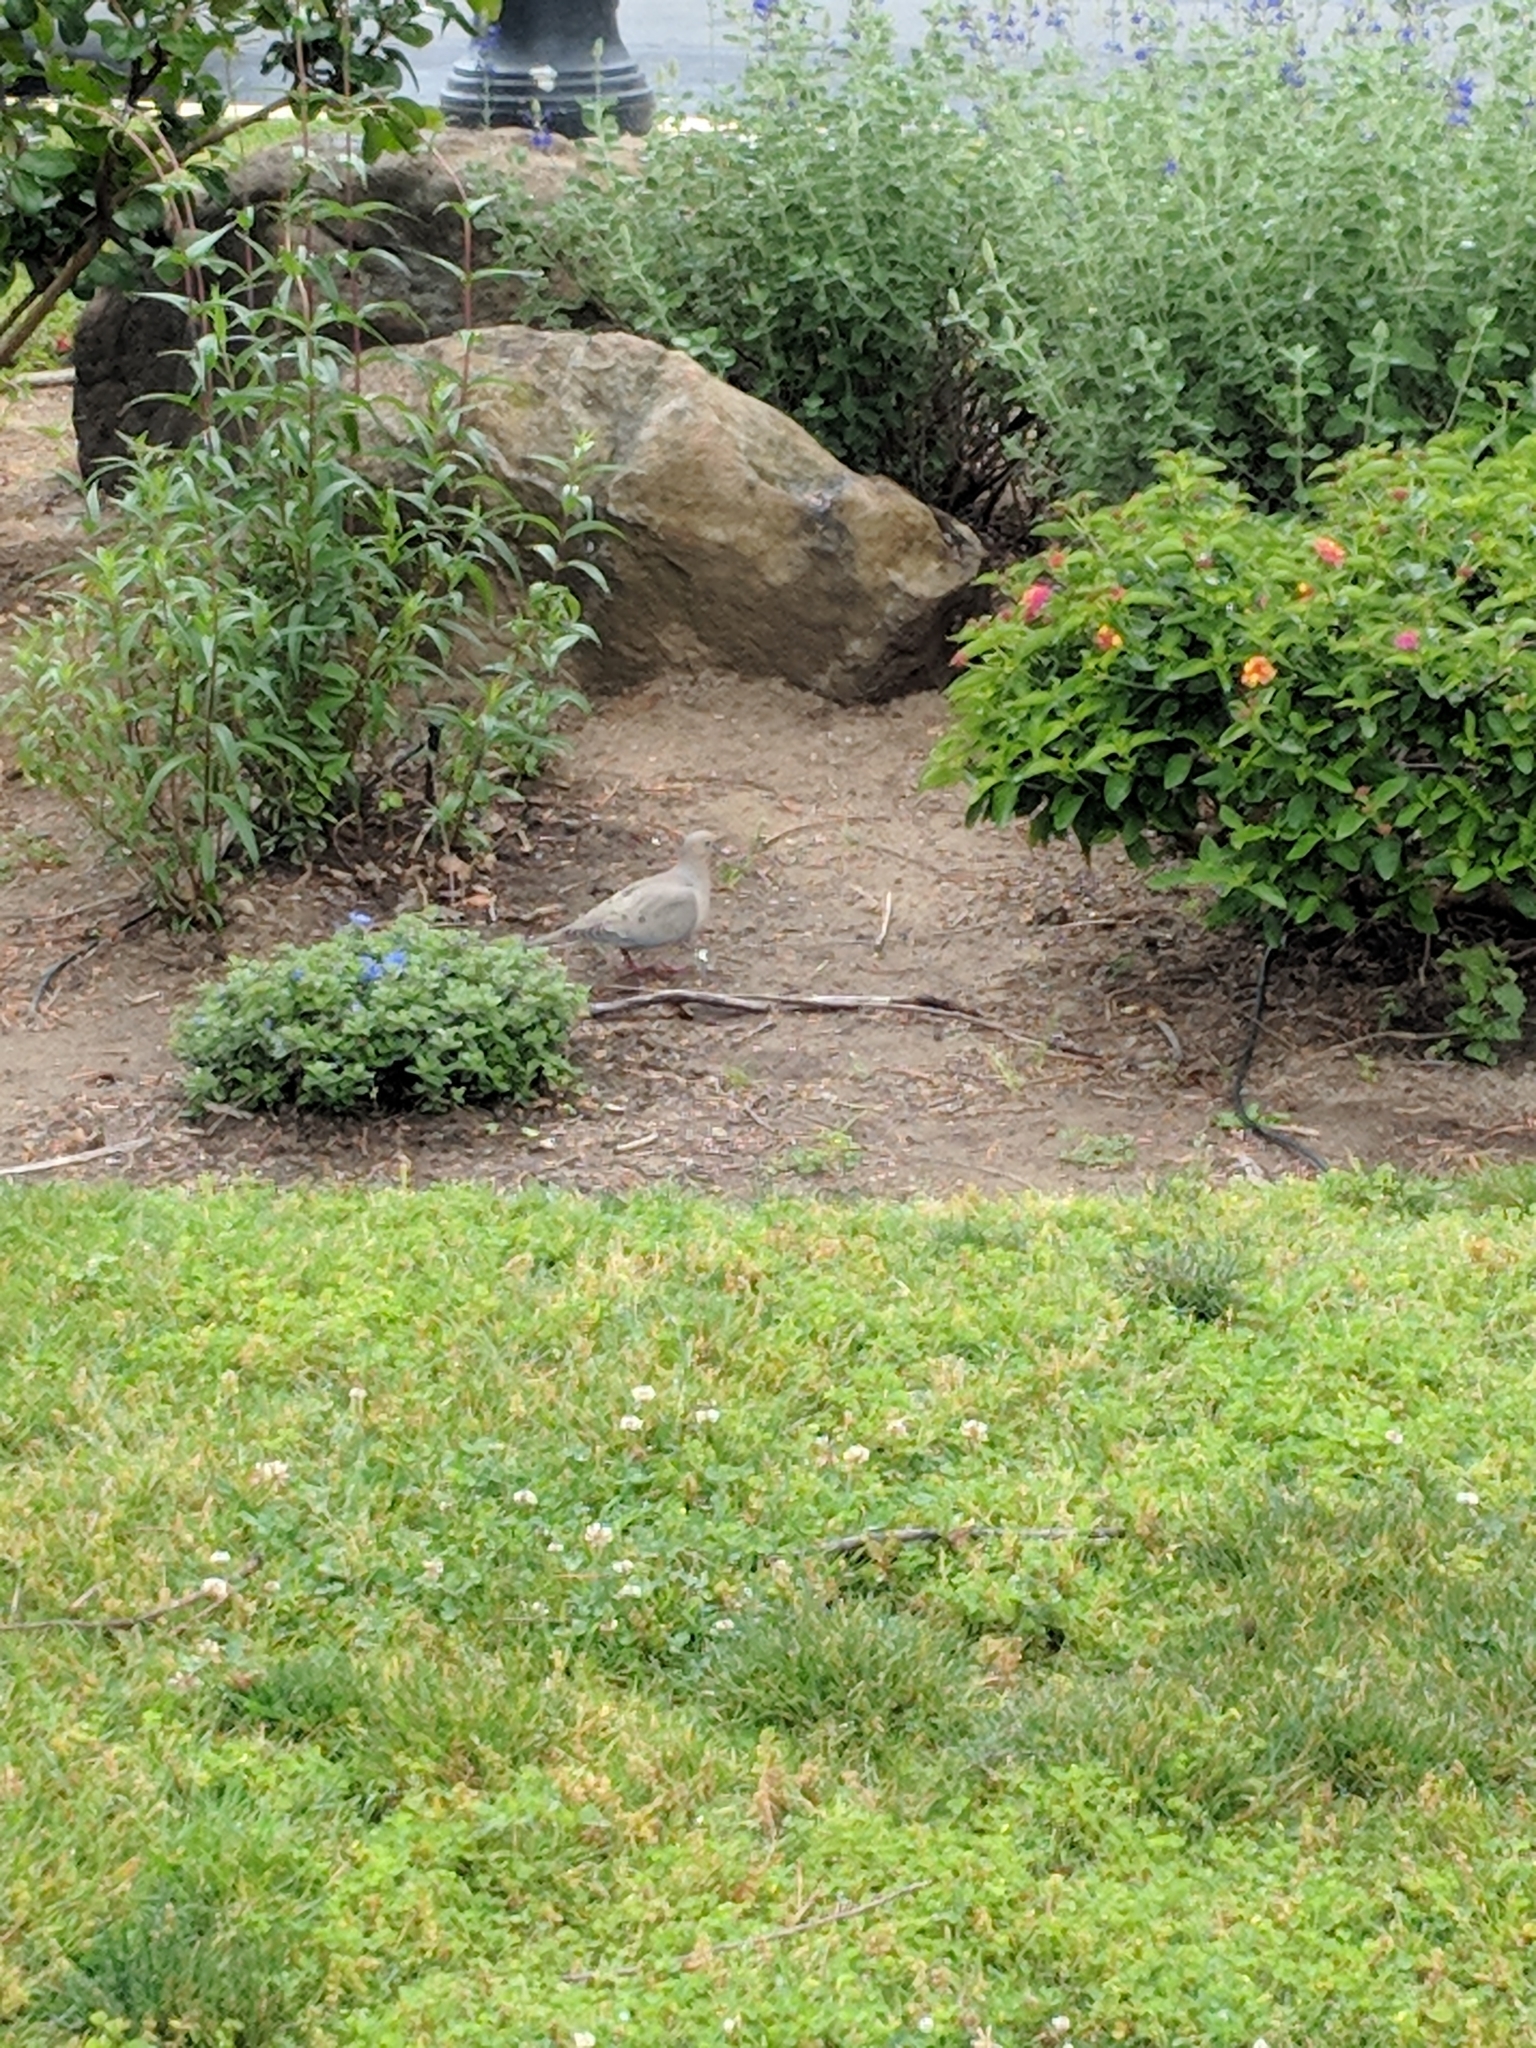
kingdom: Animalia
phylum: Chordata
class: Aves
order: Columbiformes
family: Columbidae
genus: Zenaida
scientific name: Zenaida macroura
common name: Mourning dove
